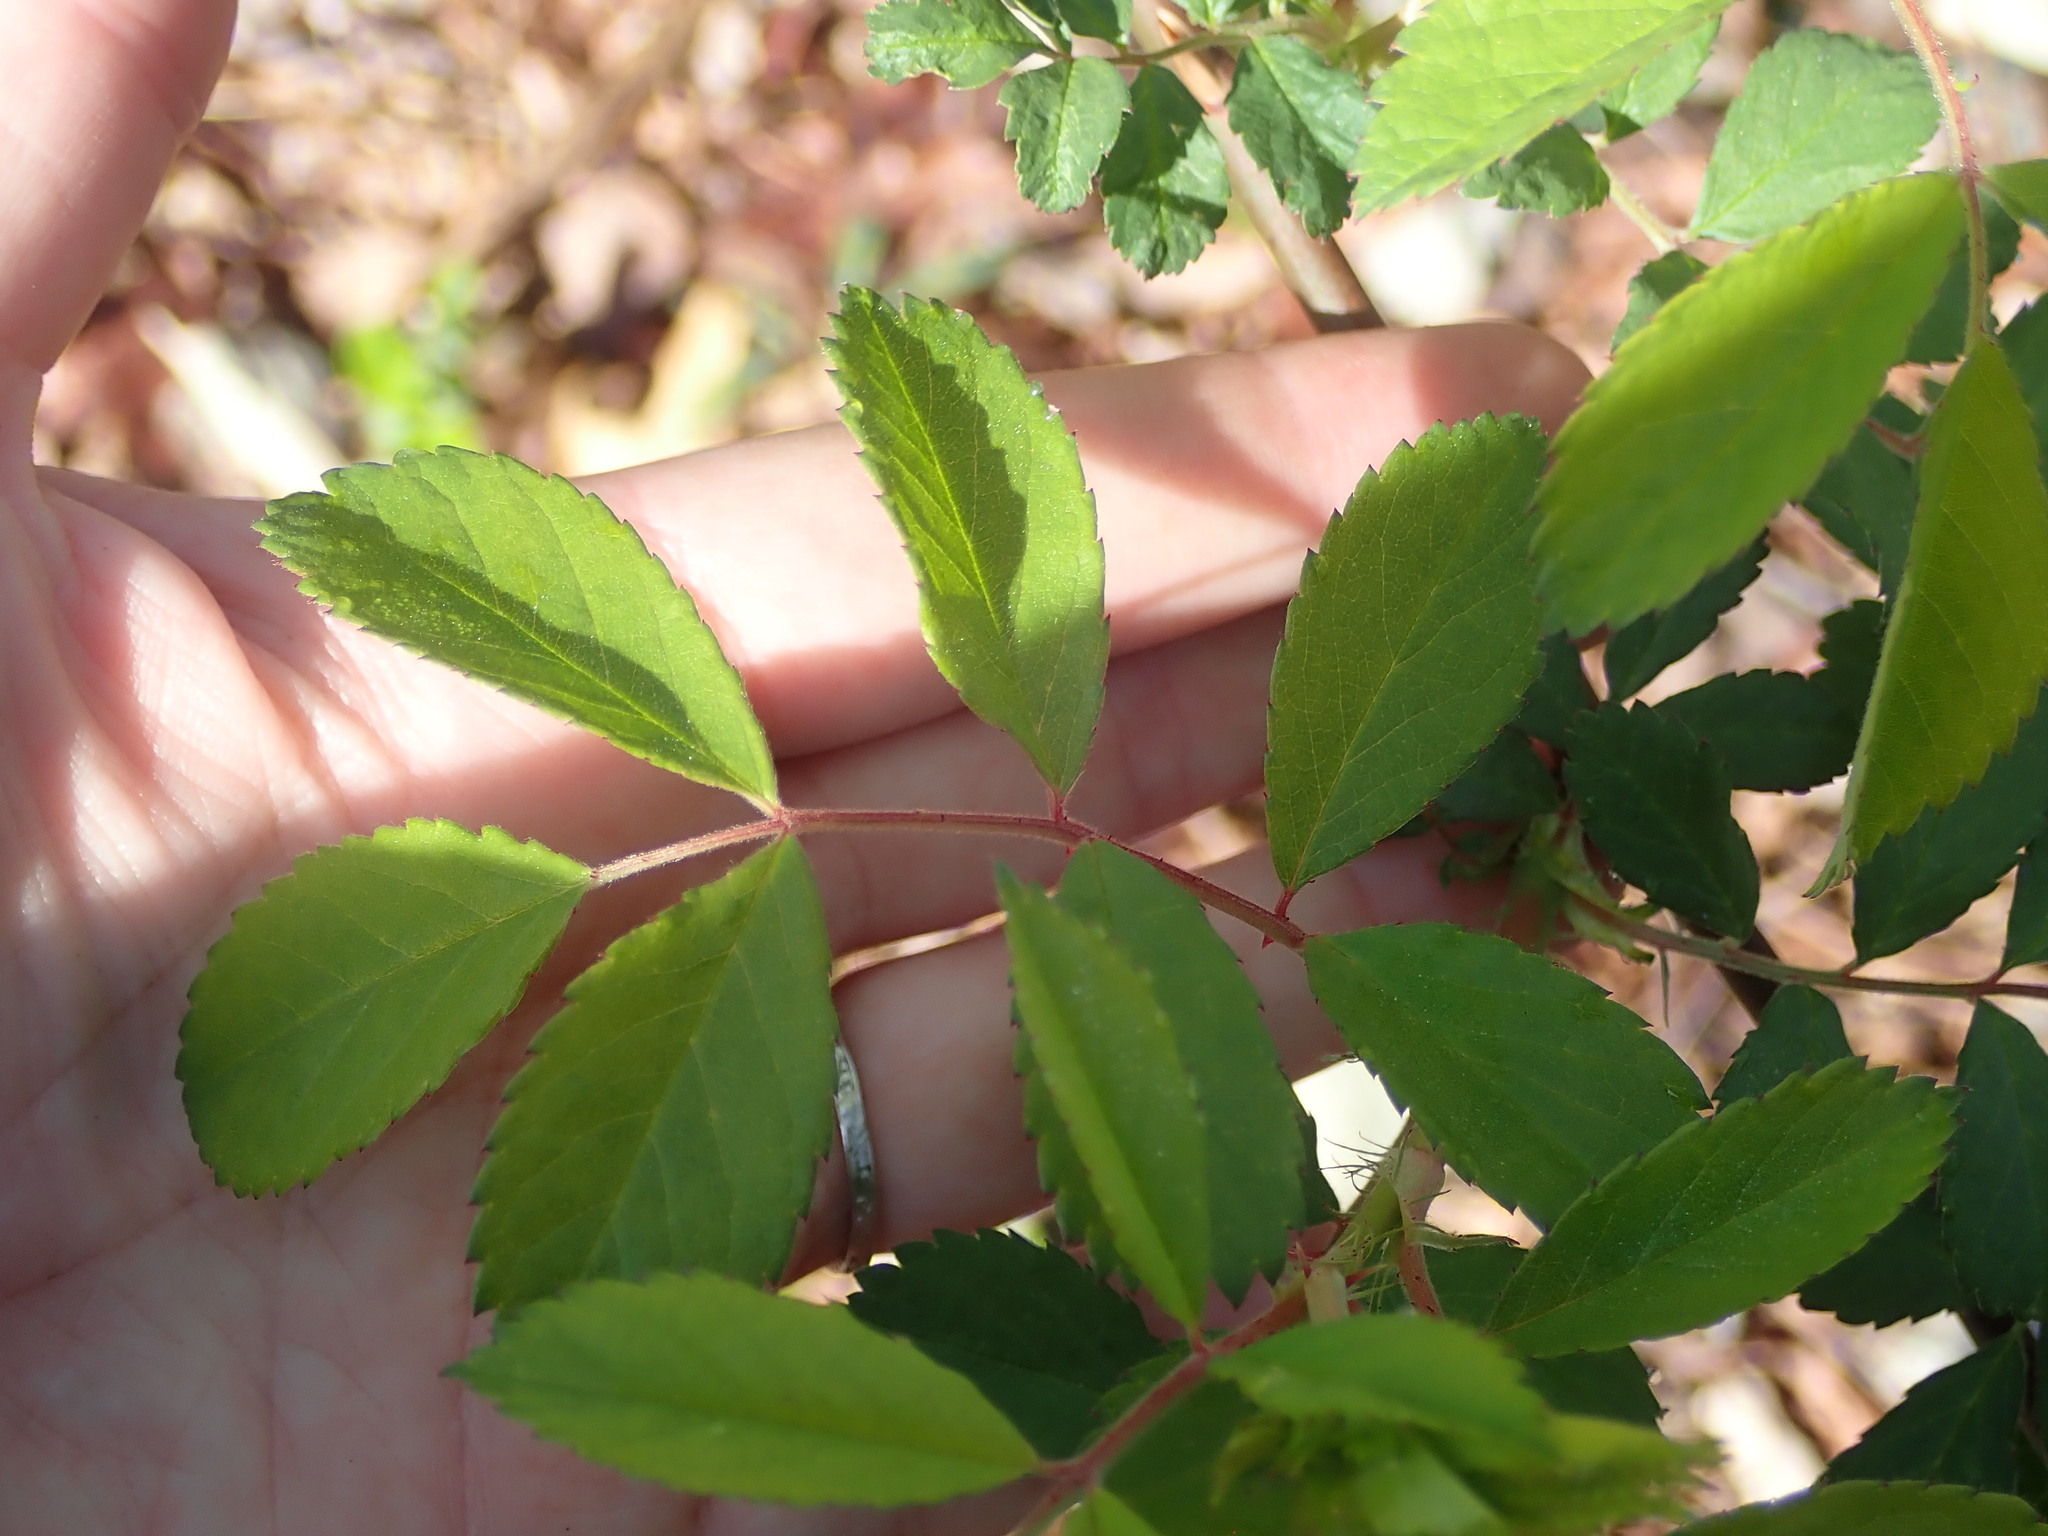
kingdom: Plantae
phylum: Tracheophyta
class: Magnoliopsida
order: Rosales
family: Rosaceae
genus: Rosa
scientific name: Rosa multiflora
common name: Multiflora rose
